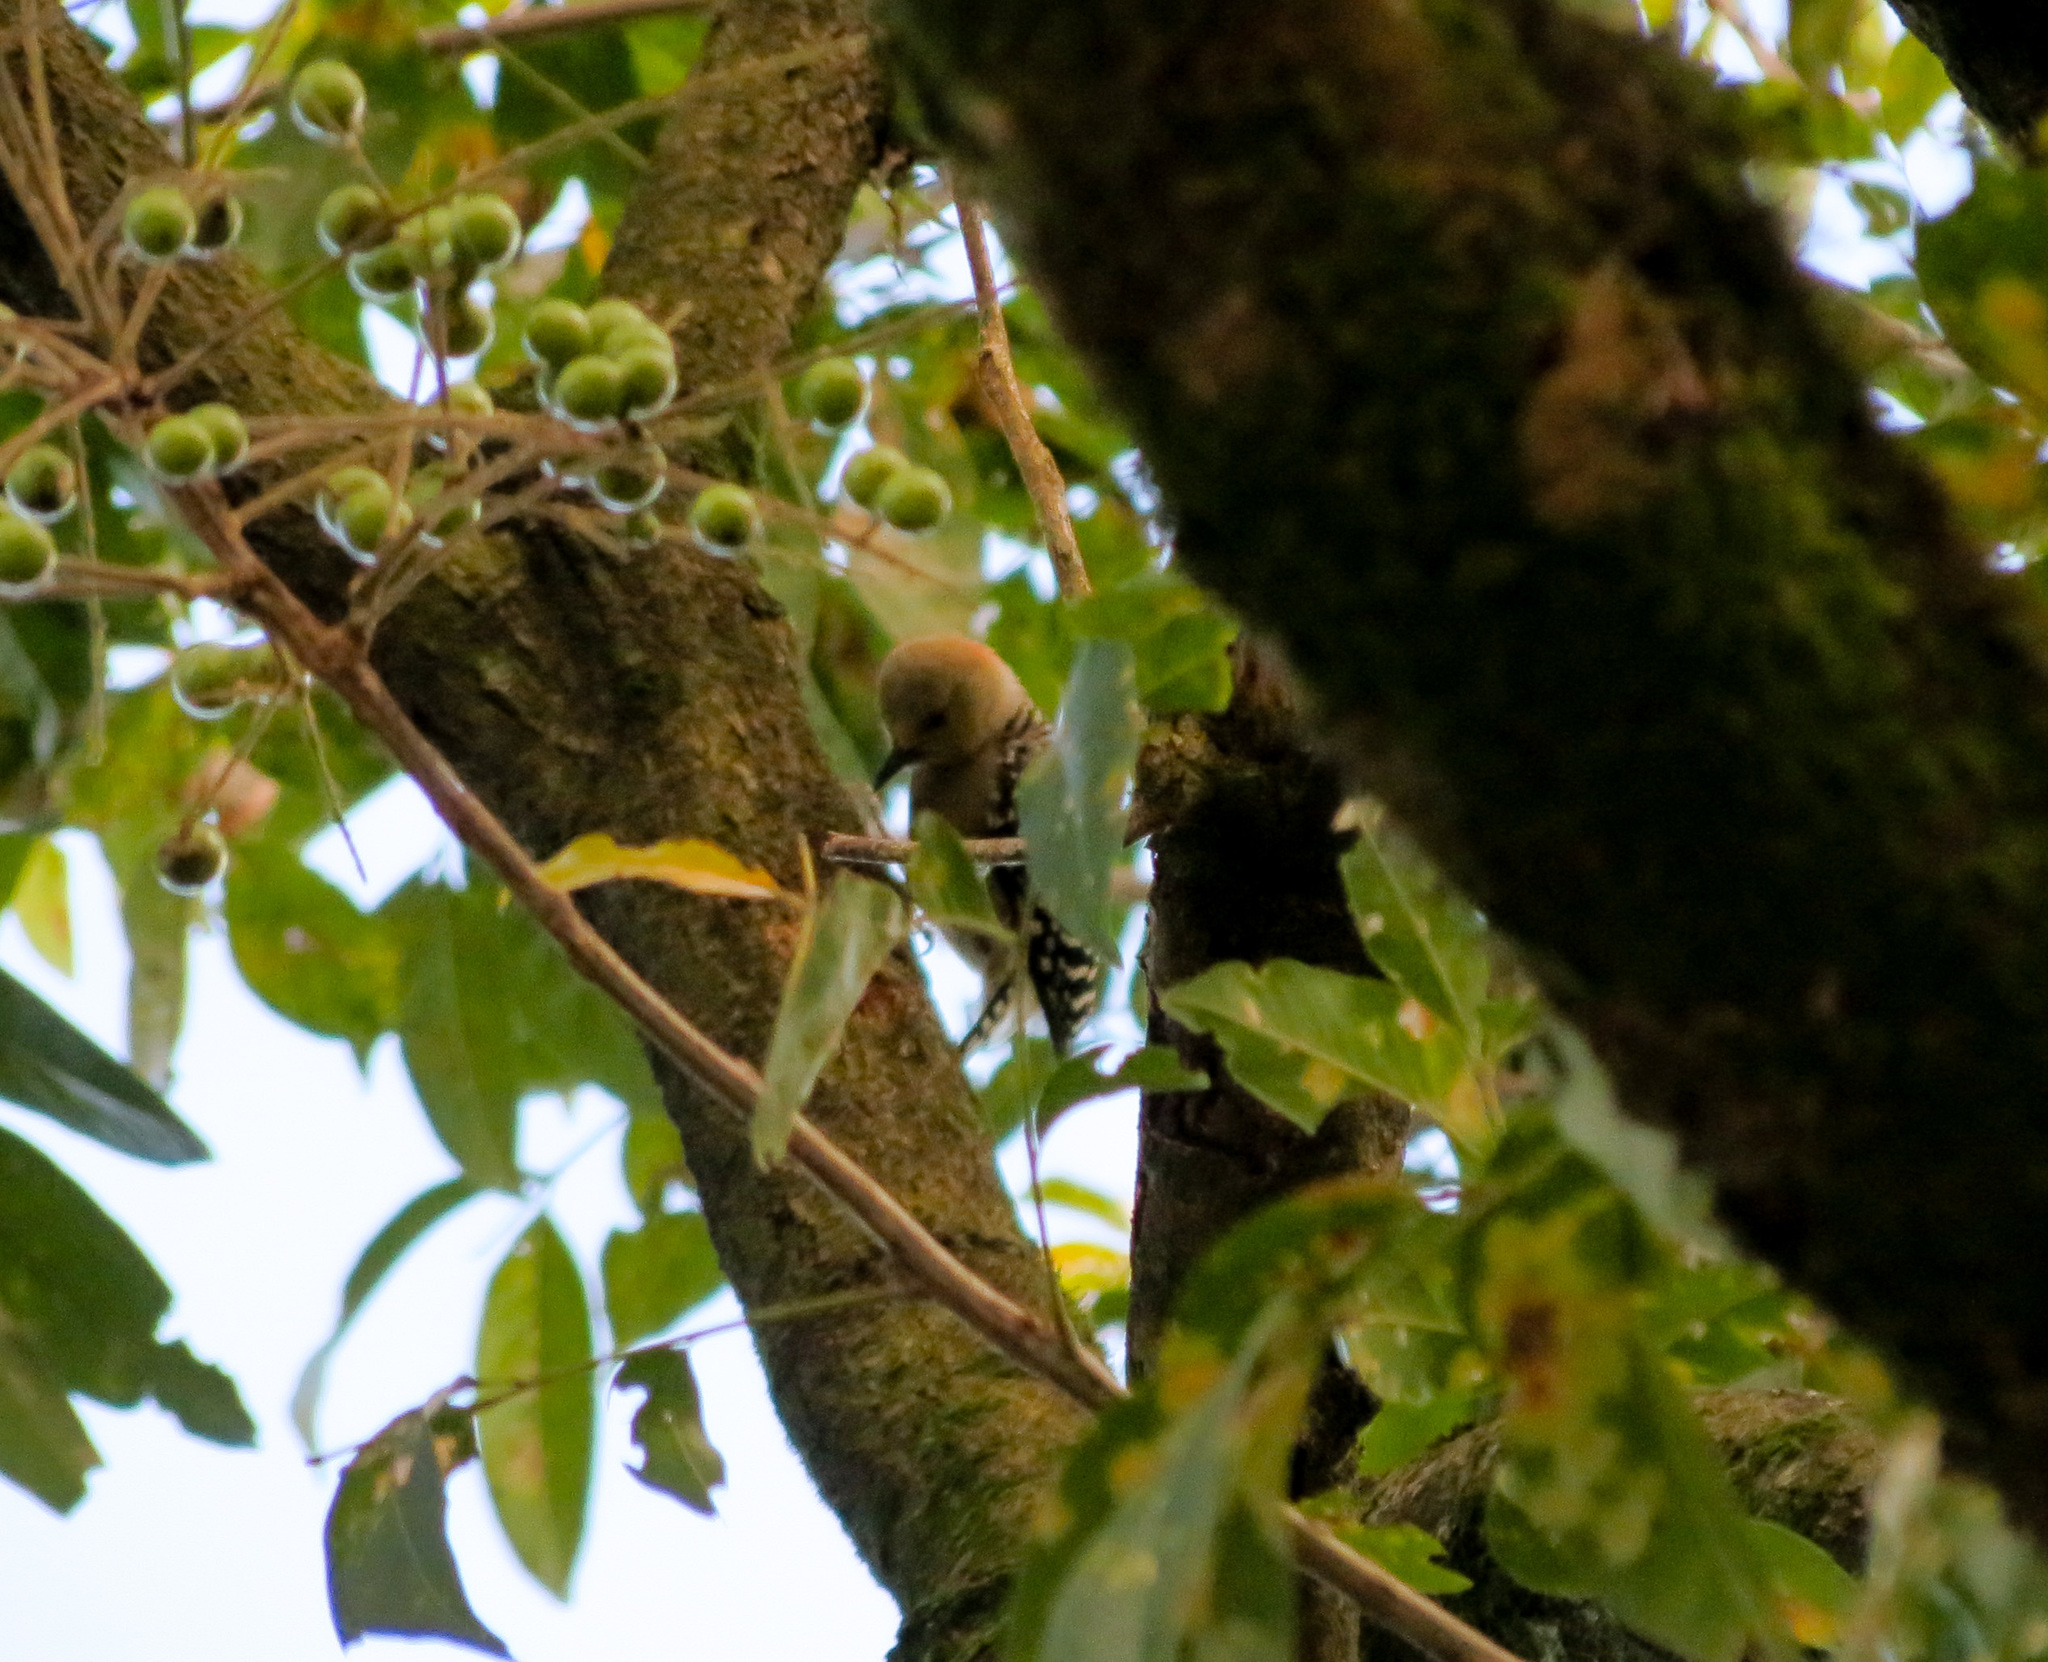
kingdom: Animalia
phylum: Chordata
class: Aves
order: Piciformes
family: Picidae
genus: Melanerpes
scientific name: Melanerpes rubricapillus
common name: Red-crowned woodpecker
